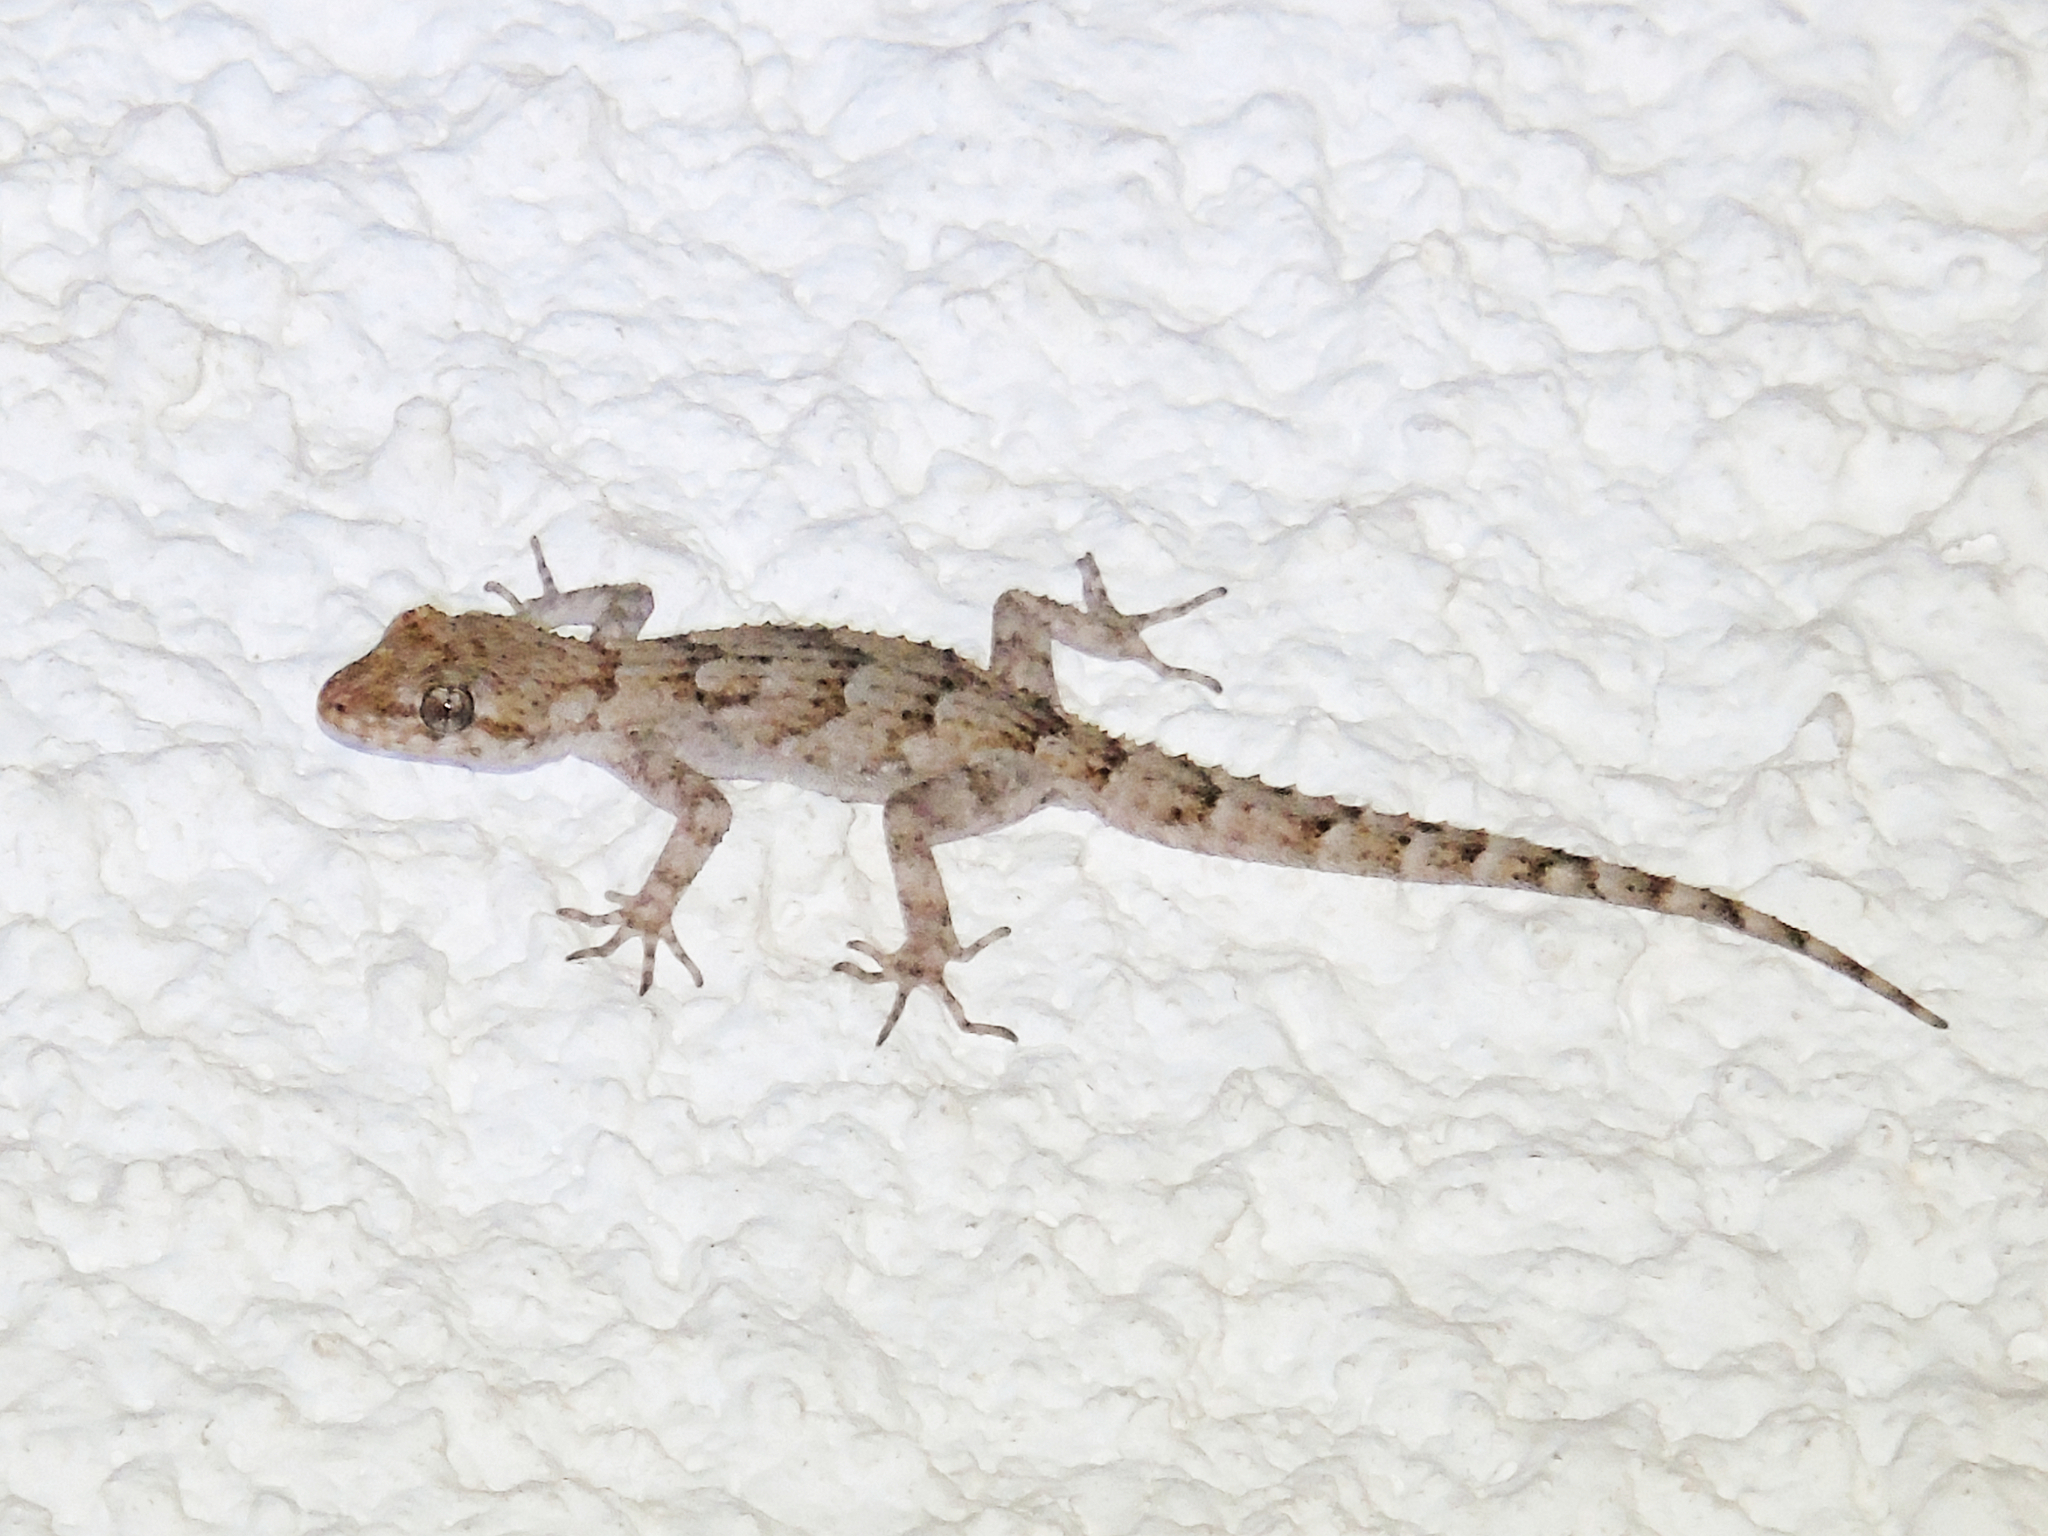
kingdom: Animalia
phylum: Chordata
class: Squamata
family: Gekkonidae
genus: Mediodactylus
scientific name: Mediodactylus kotschyi
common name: Kotschy's gecko
